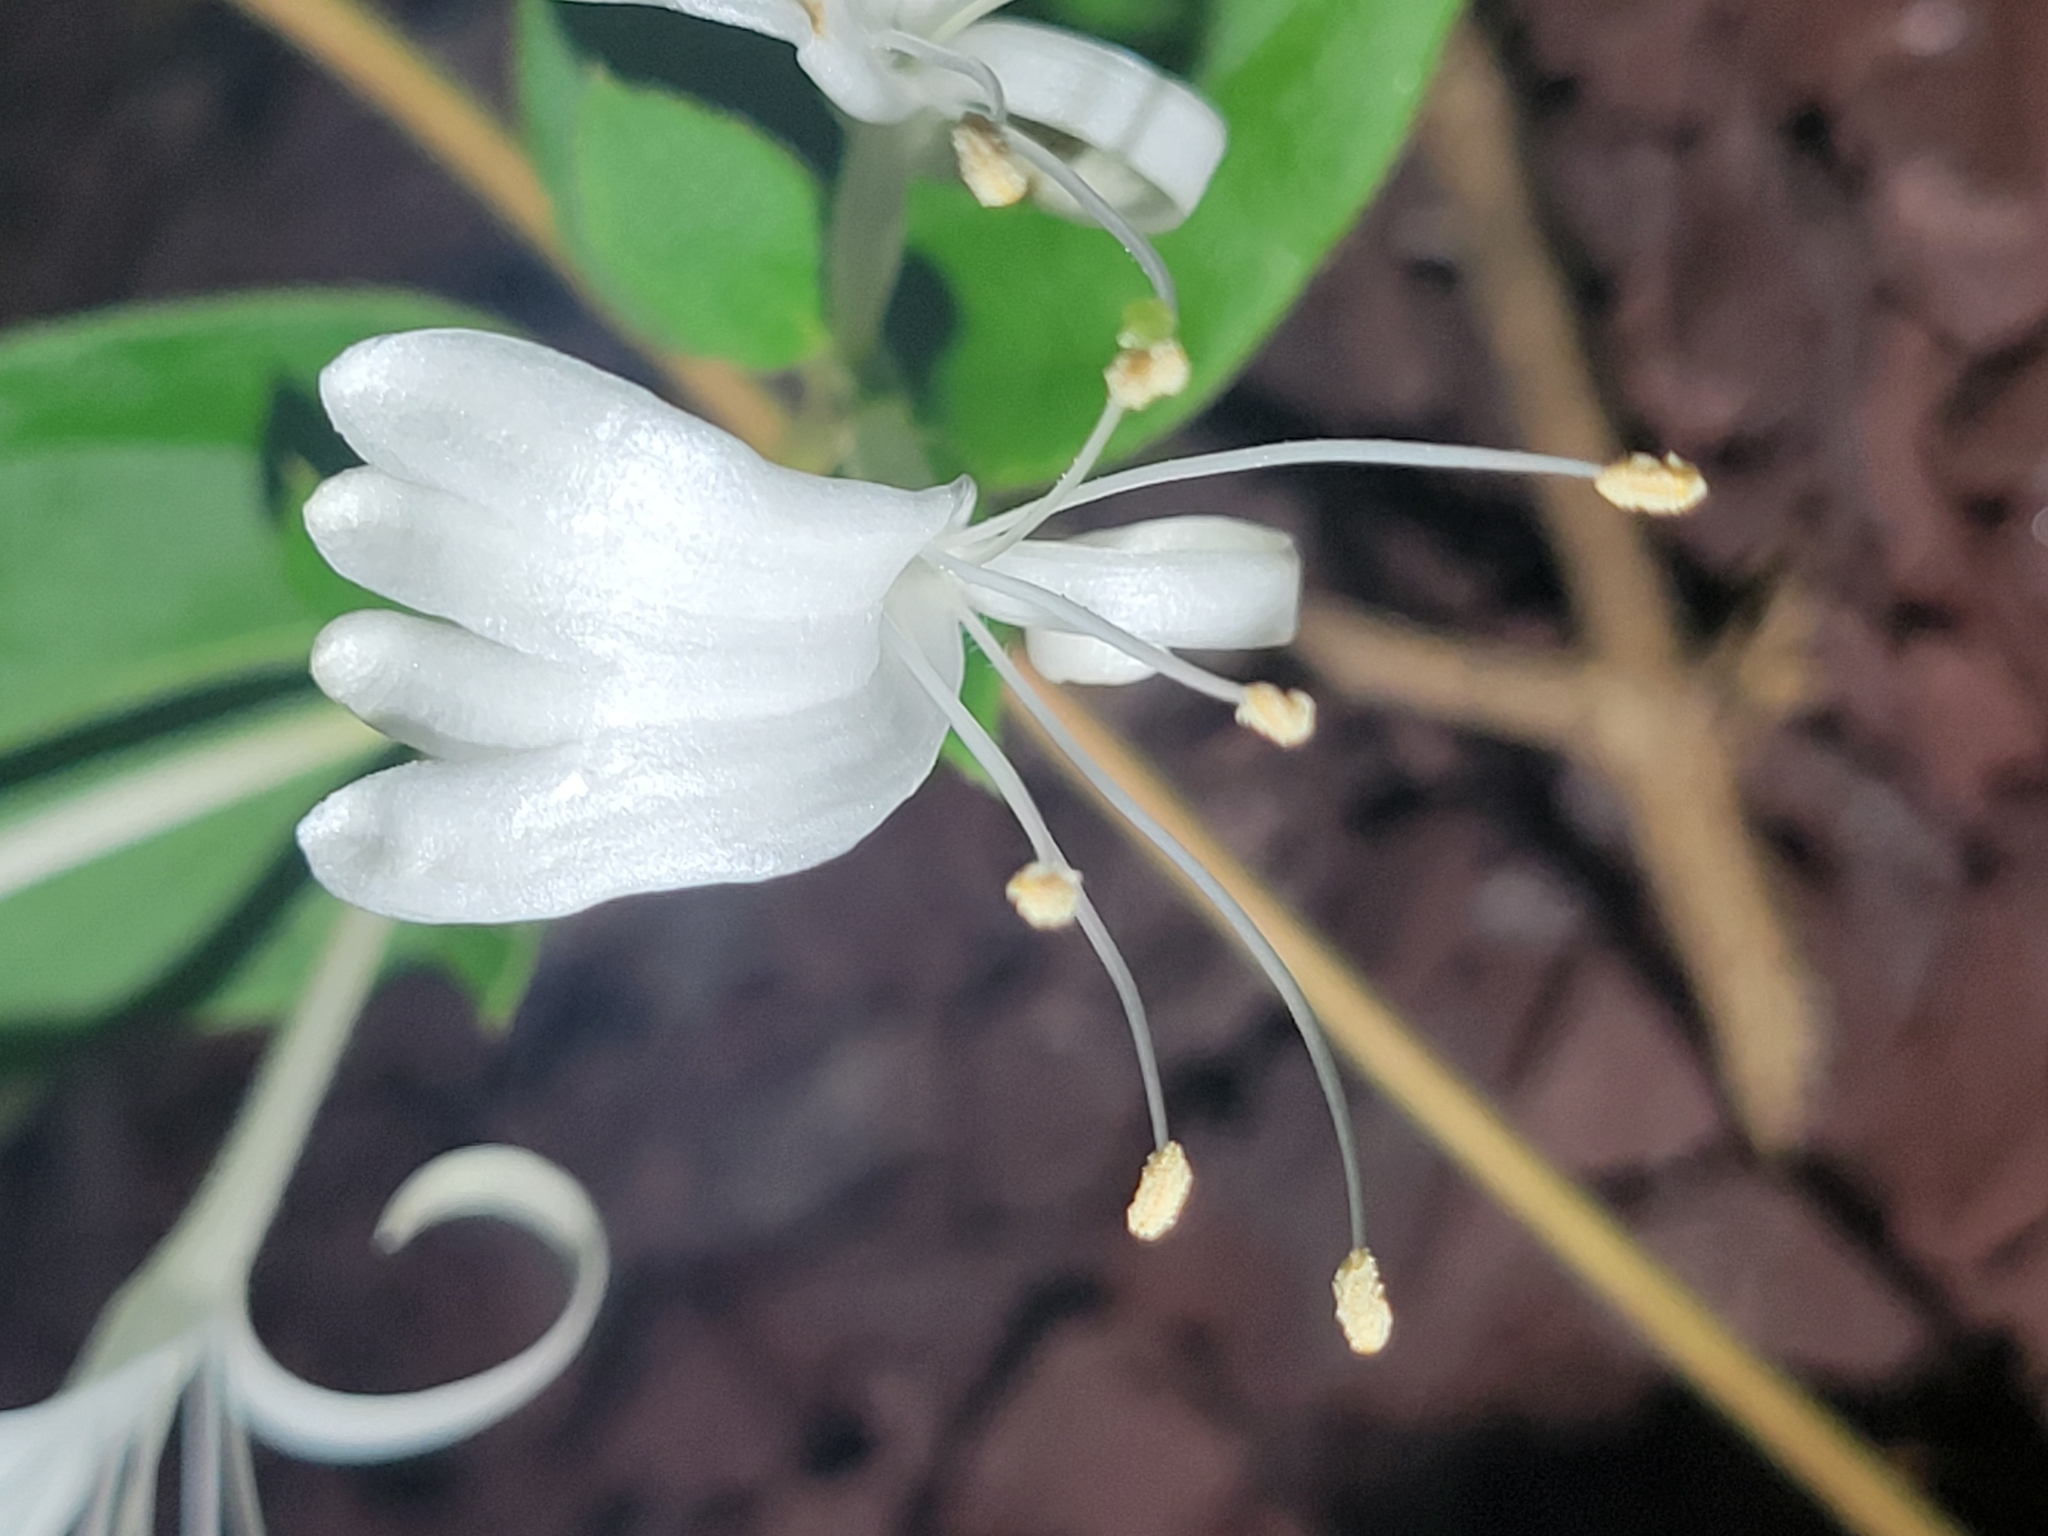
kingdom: Plantae
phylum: Tracheophyta
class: Magnoliopsida
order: Dipsacales
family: Caprifoliaceae
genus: Lonicera
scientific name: Lonicera japonica
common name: Japanese honeysuckle
